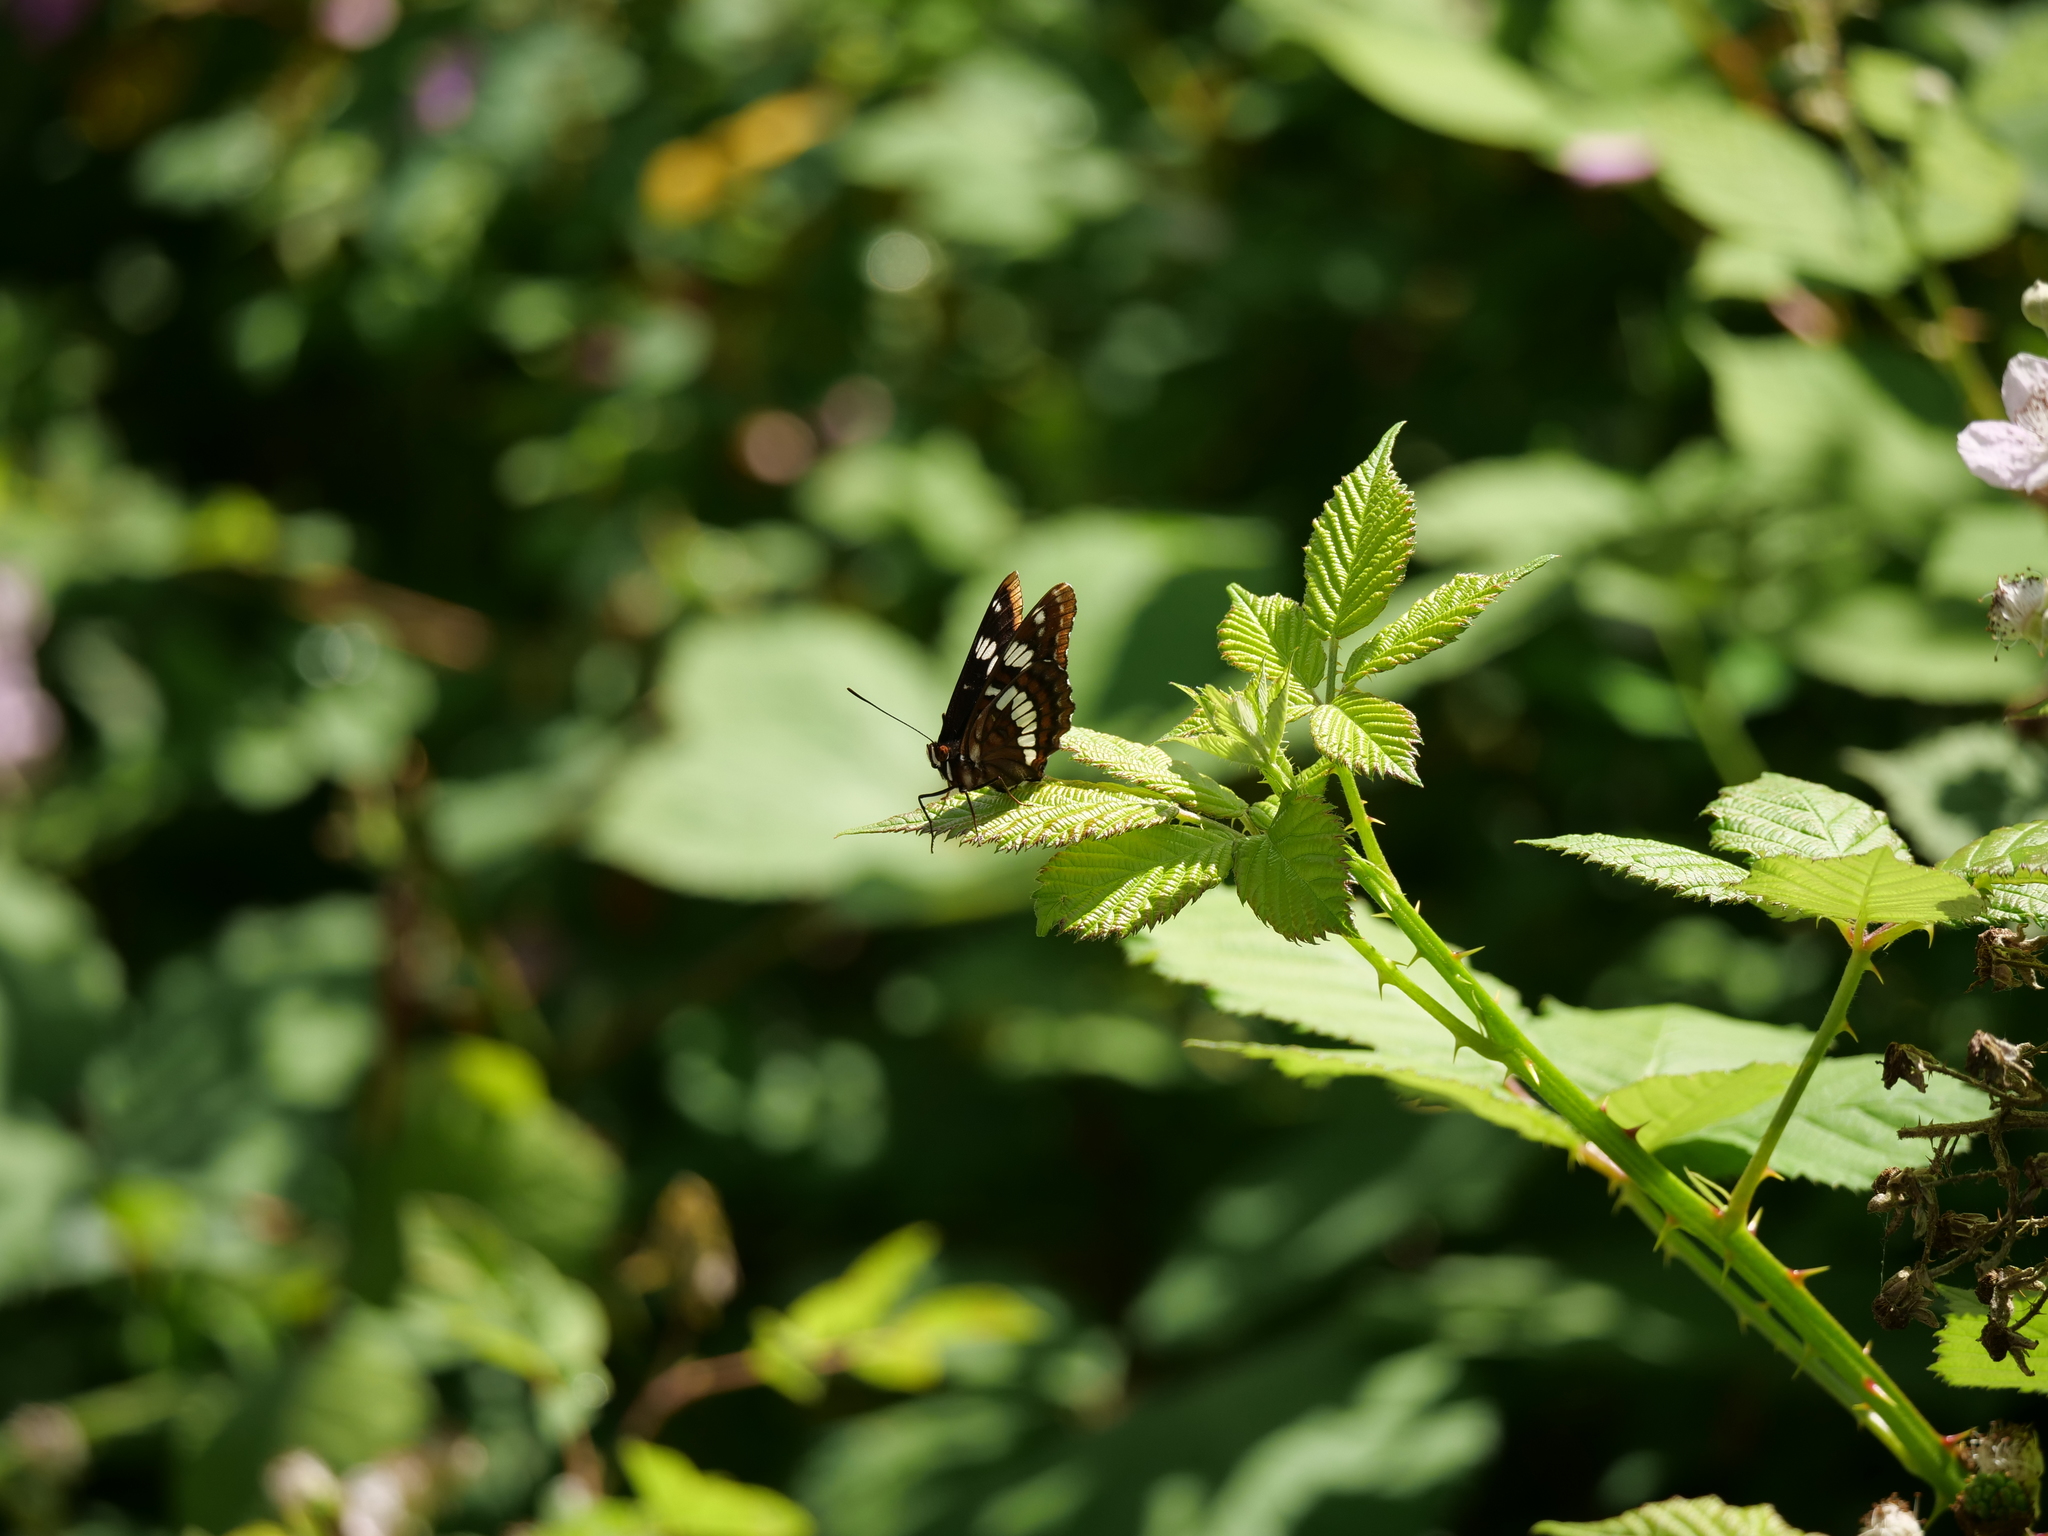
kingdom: Animalia
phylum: Arthropoda
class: Insecta
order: Lepidoptera
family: Nymphalidae
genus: Limenitis
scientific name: Limenitis lorquini
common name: Lorquin's admiral
